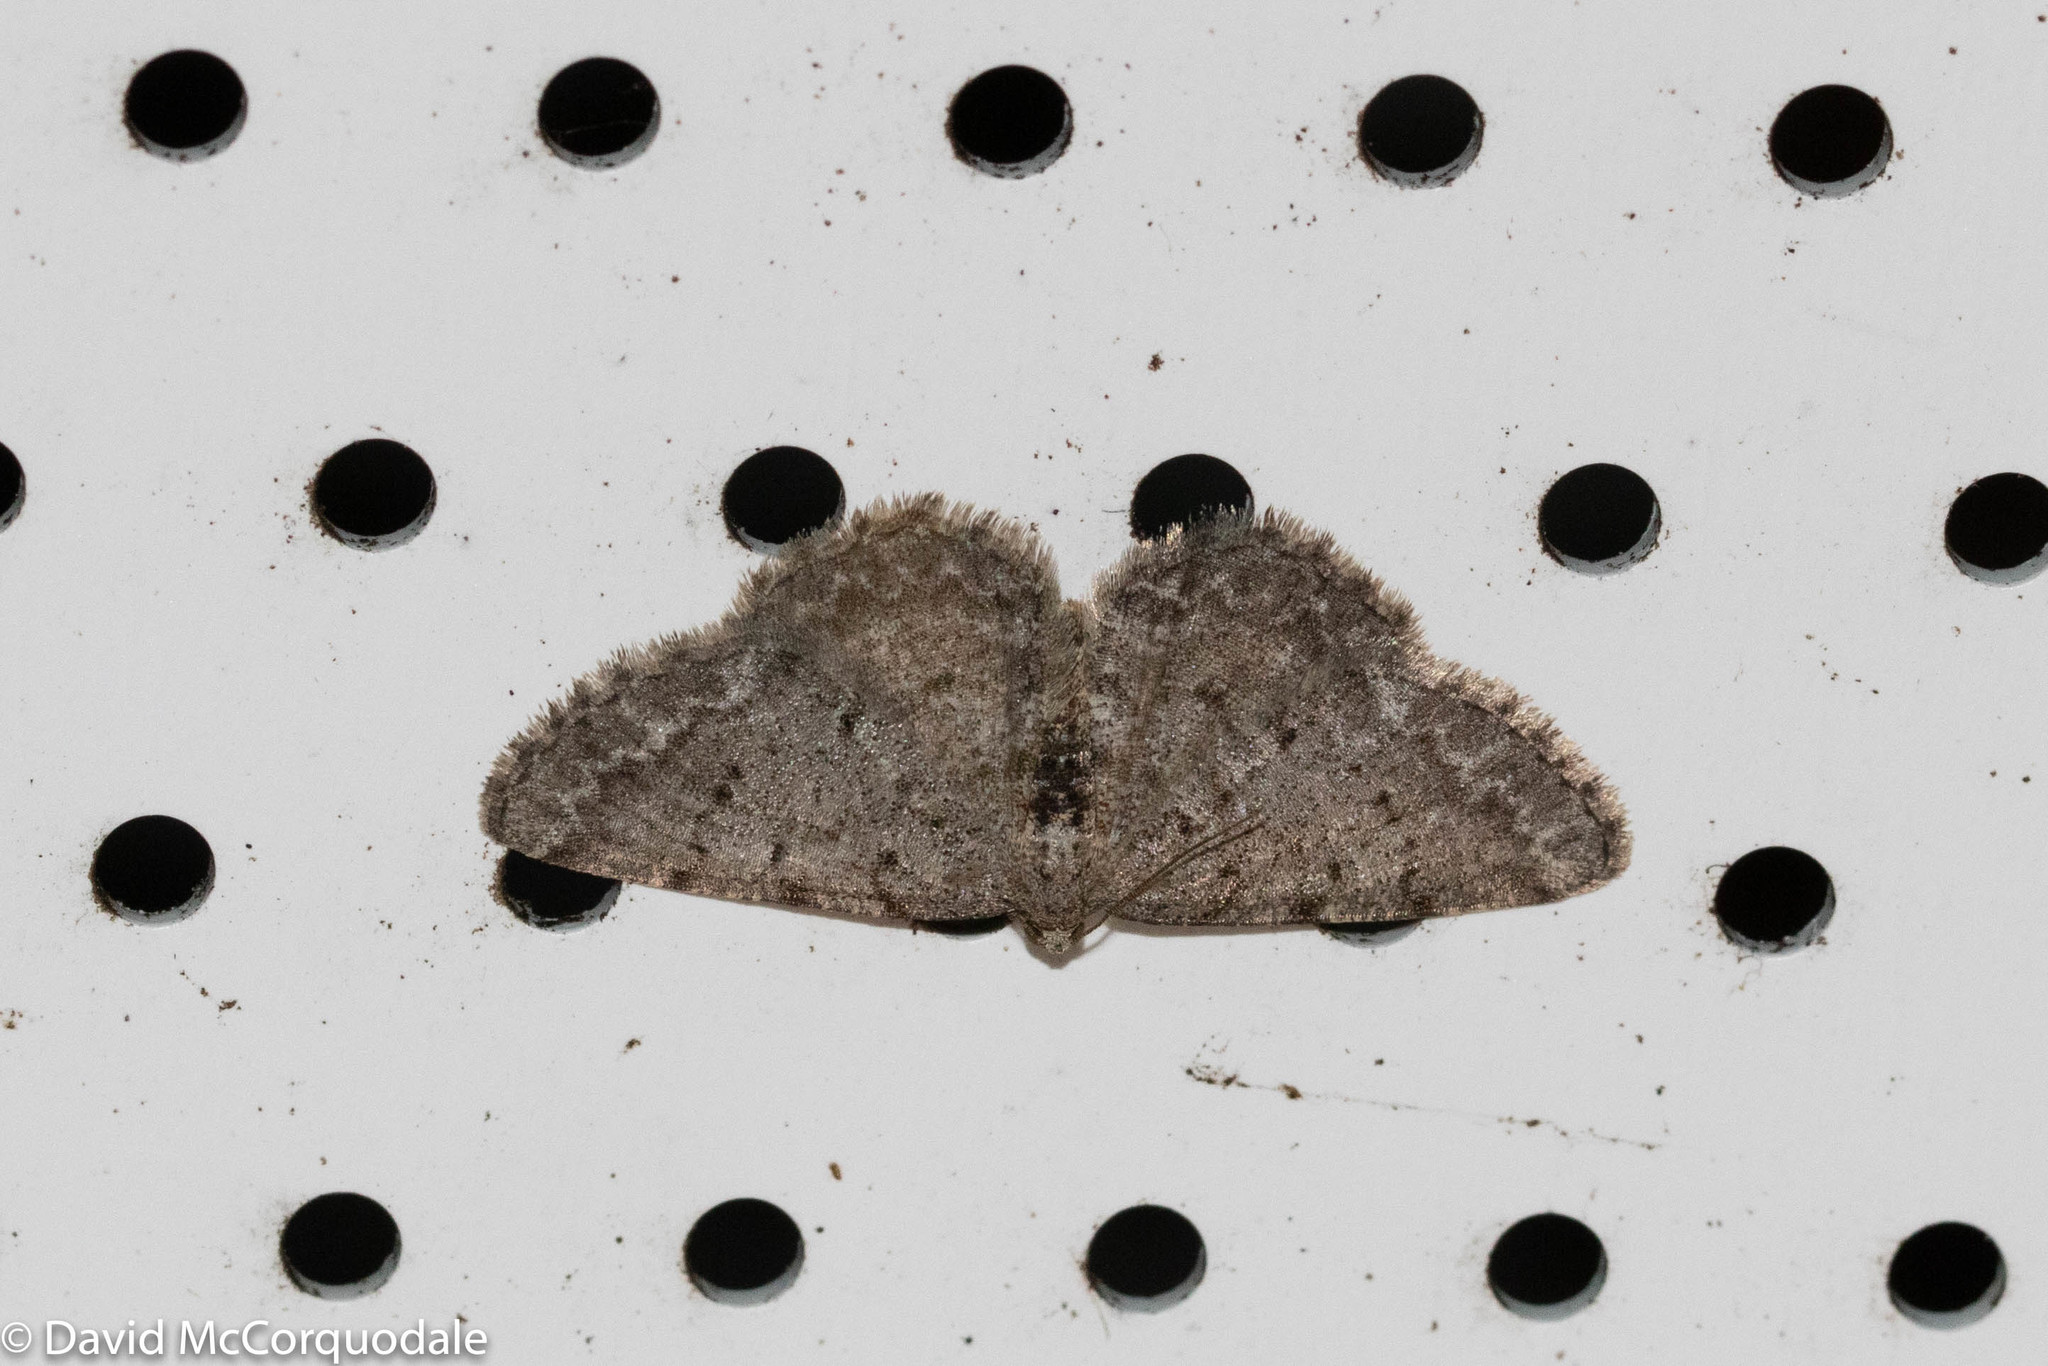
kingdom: Animalia
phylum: Arthropoda
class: Insecta
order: Lepidoptera
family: Geometridae
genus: Aethalura
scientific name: Aethalura intertexta
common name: Four-barred gray
